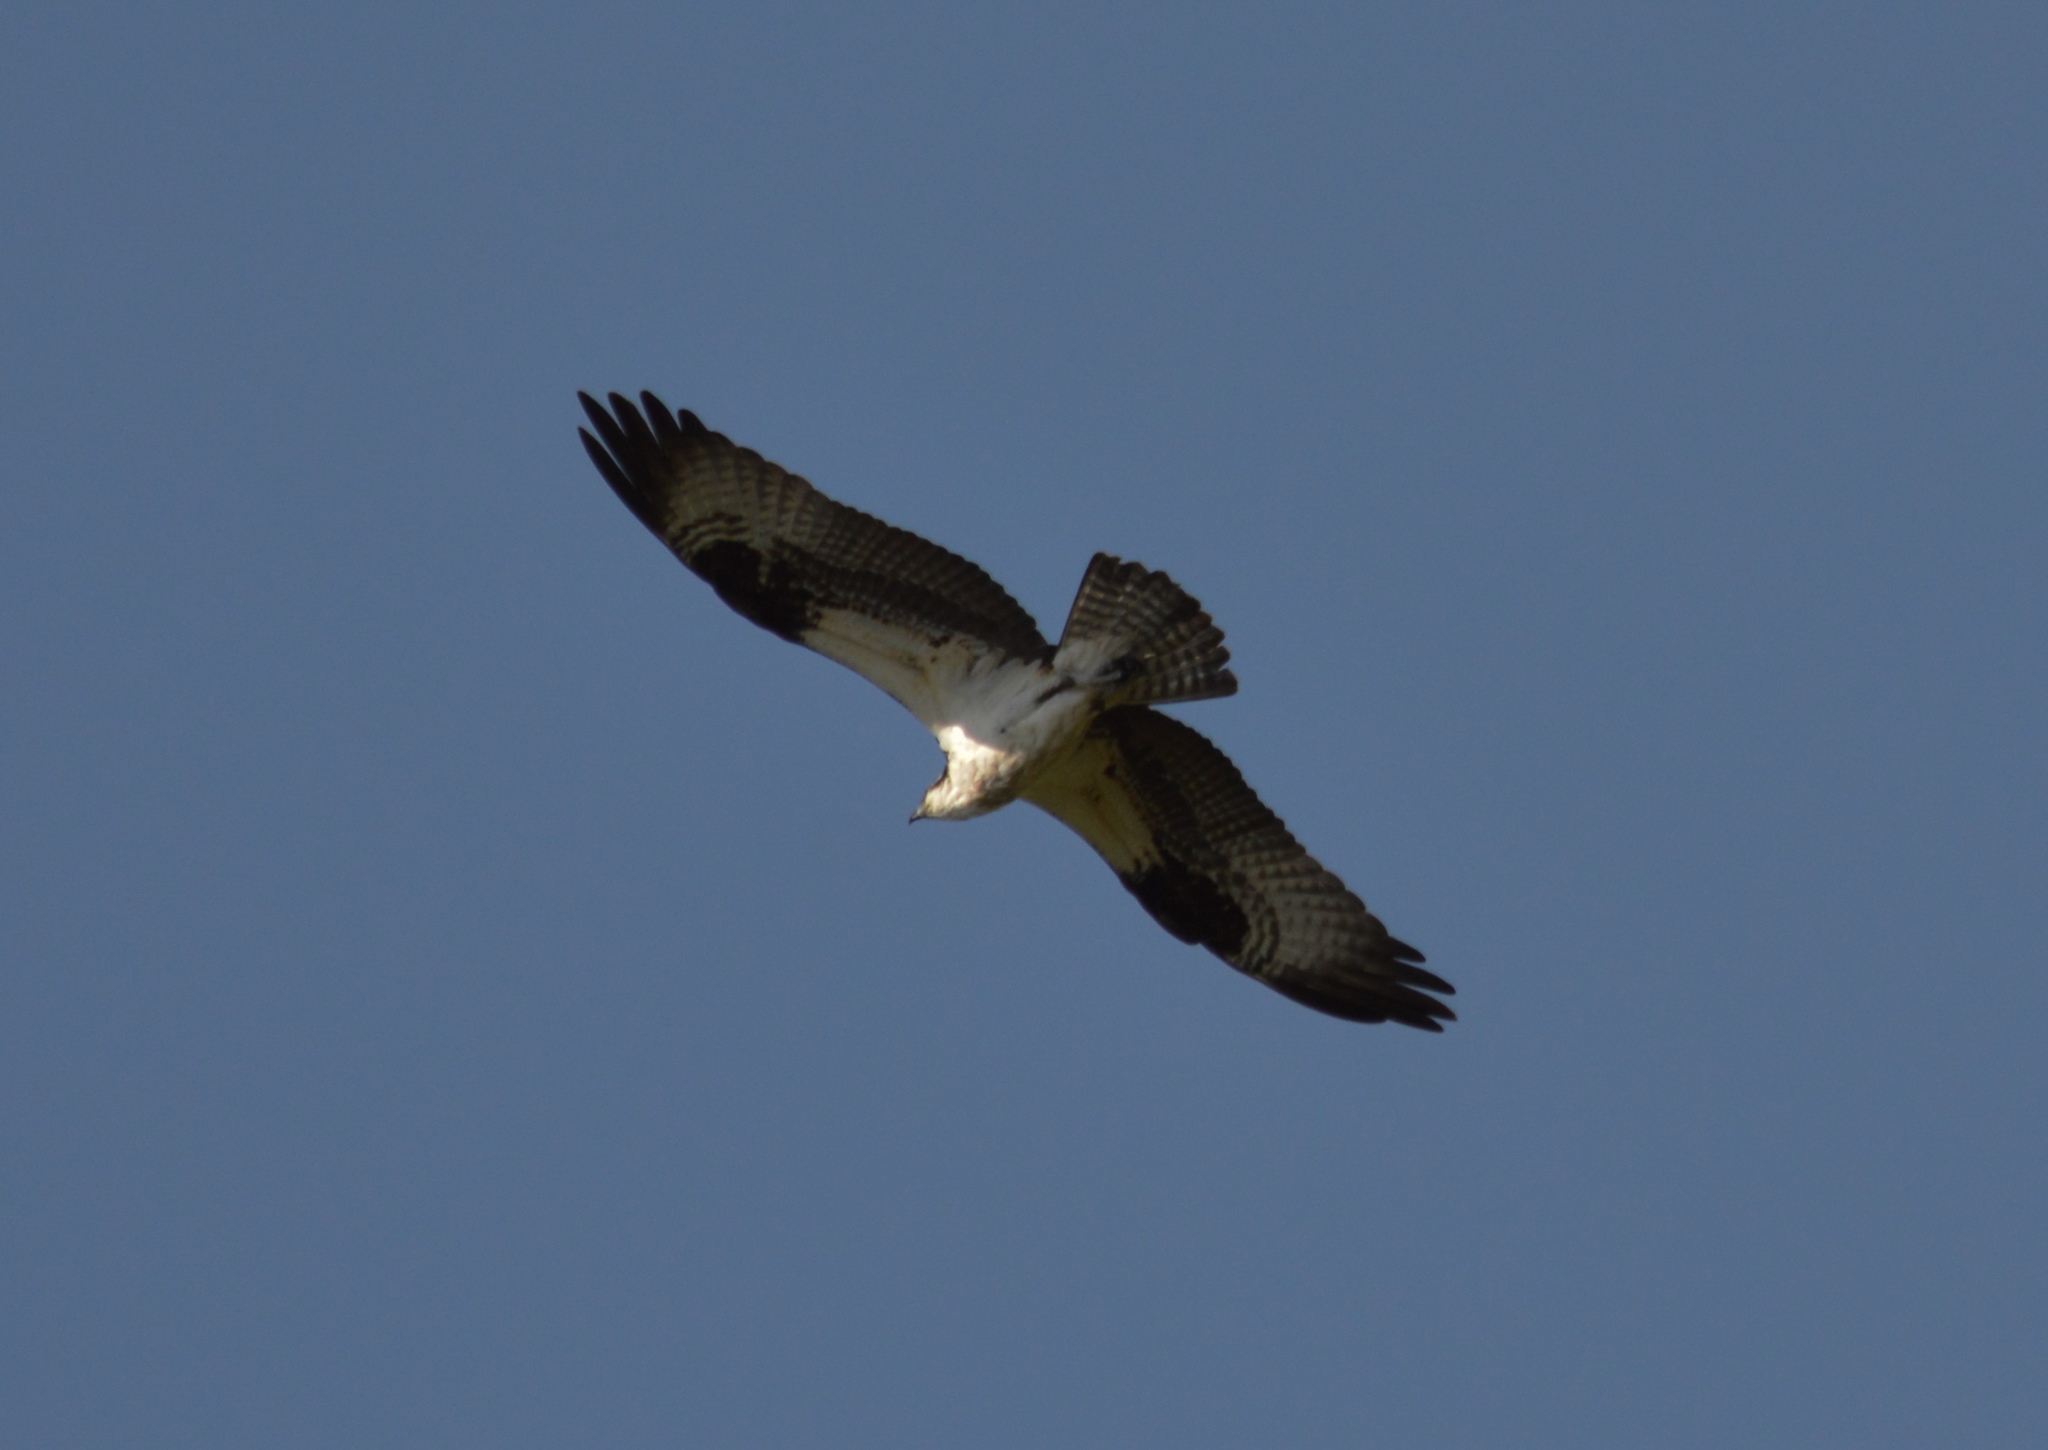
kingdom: Animalia
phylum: Chordata
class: Aves
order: Accipitriformes
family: Pandionidae
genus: Pandion
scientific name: Pandion haliaetus
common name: Osprey
